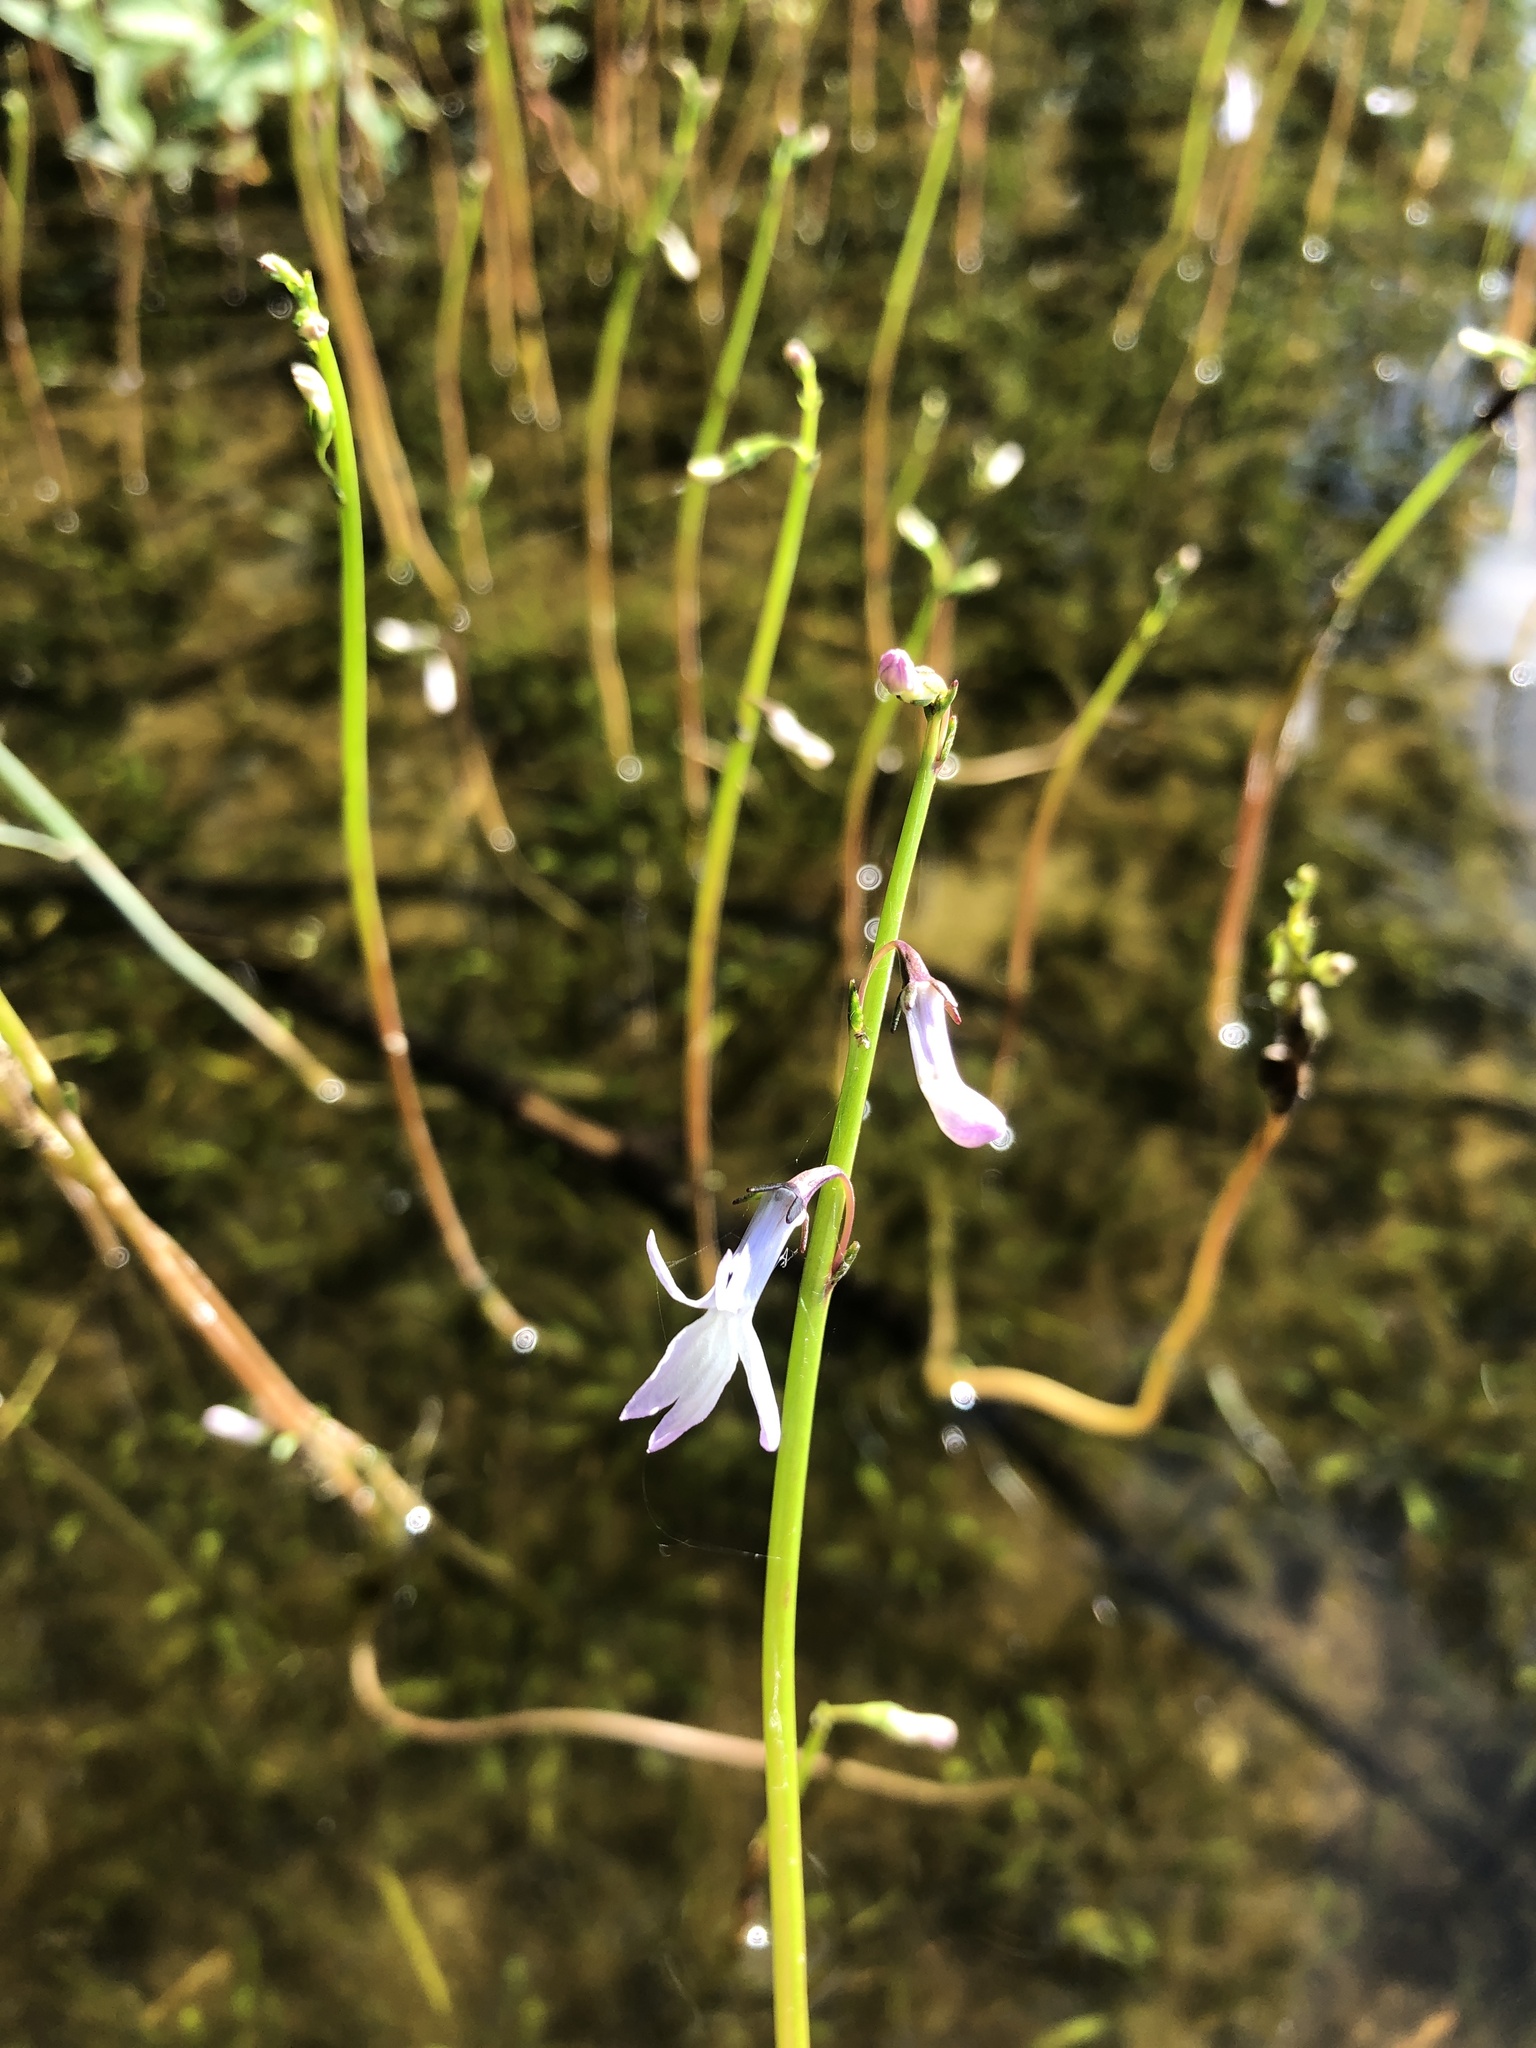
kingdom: Plantae
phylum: Tracheophyta
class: Magnoliopsida
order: Asterales
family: Campanulaceae
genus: Lobelia
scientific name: Lobelia dortmanna
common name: Water lobelia
